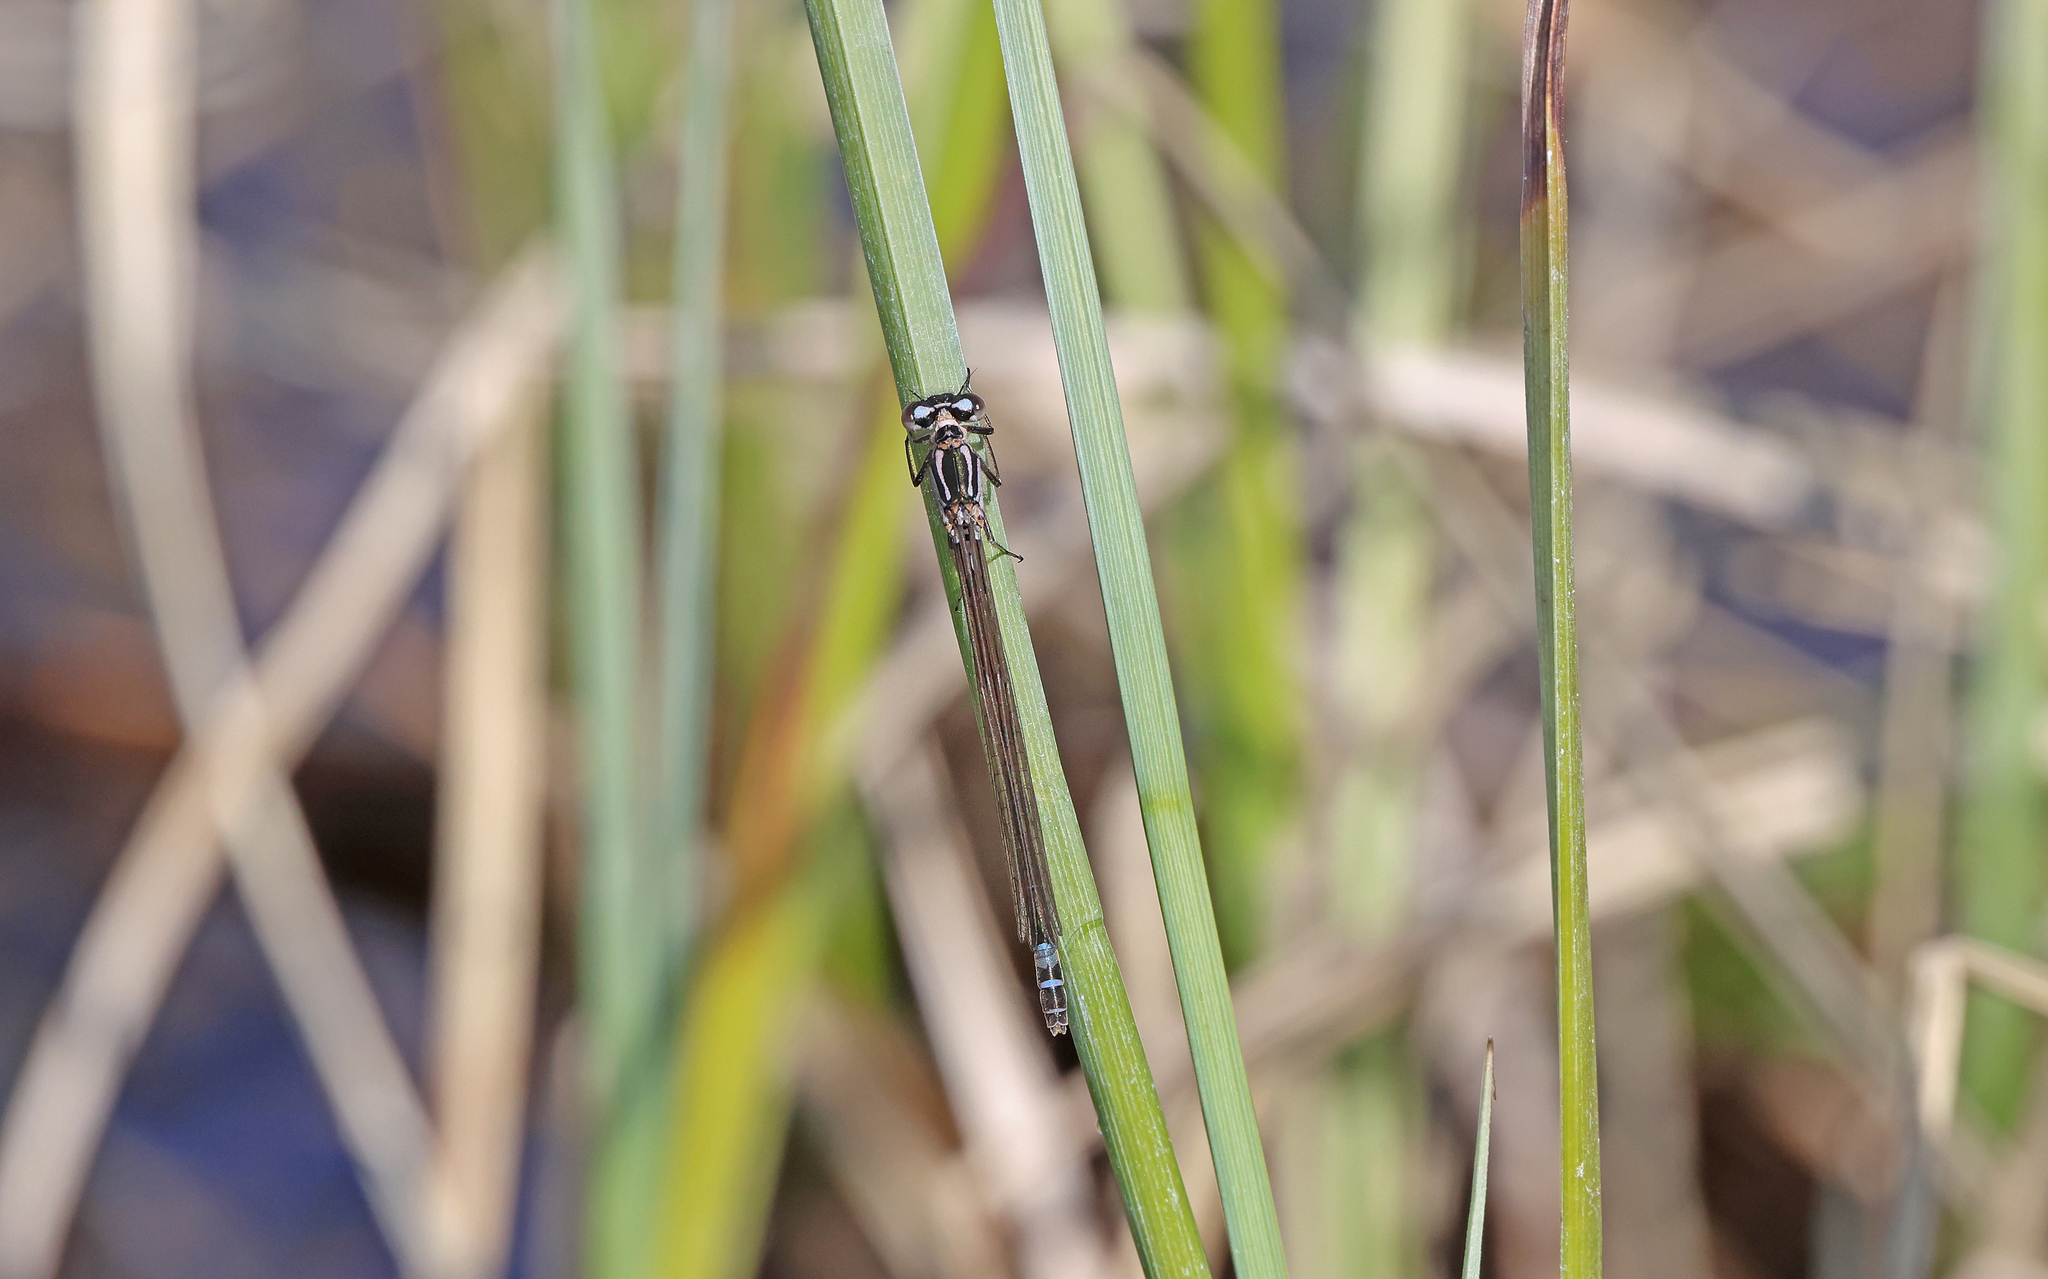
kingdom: Animalia
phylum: Arthropoda
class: Insecta
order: Odonata
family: Coenagrionidae
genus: Coenagrion
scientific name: Coenagrion armatum
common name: Dark bluet
